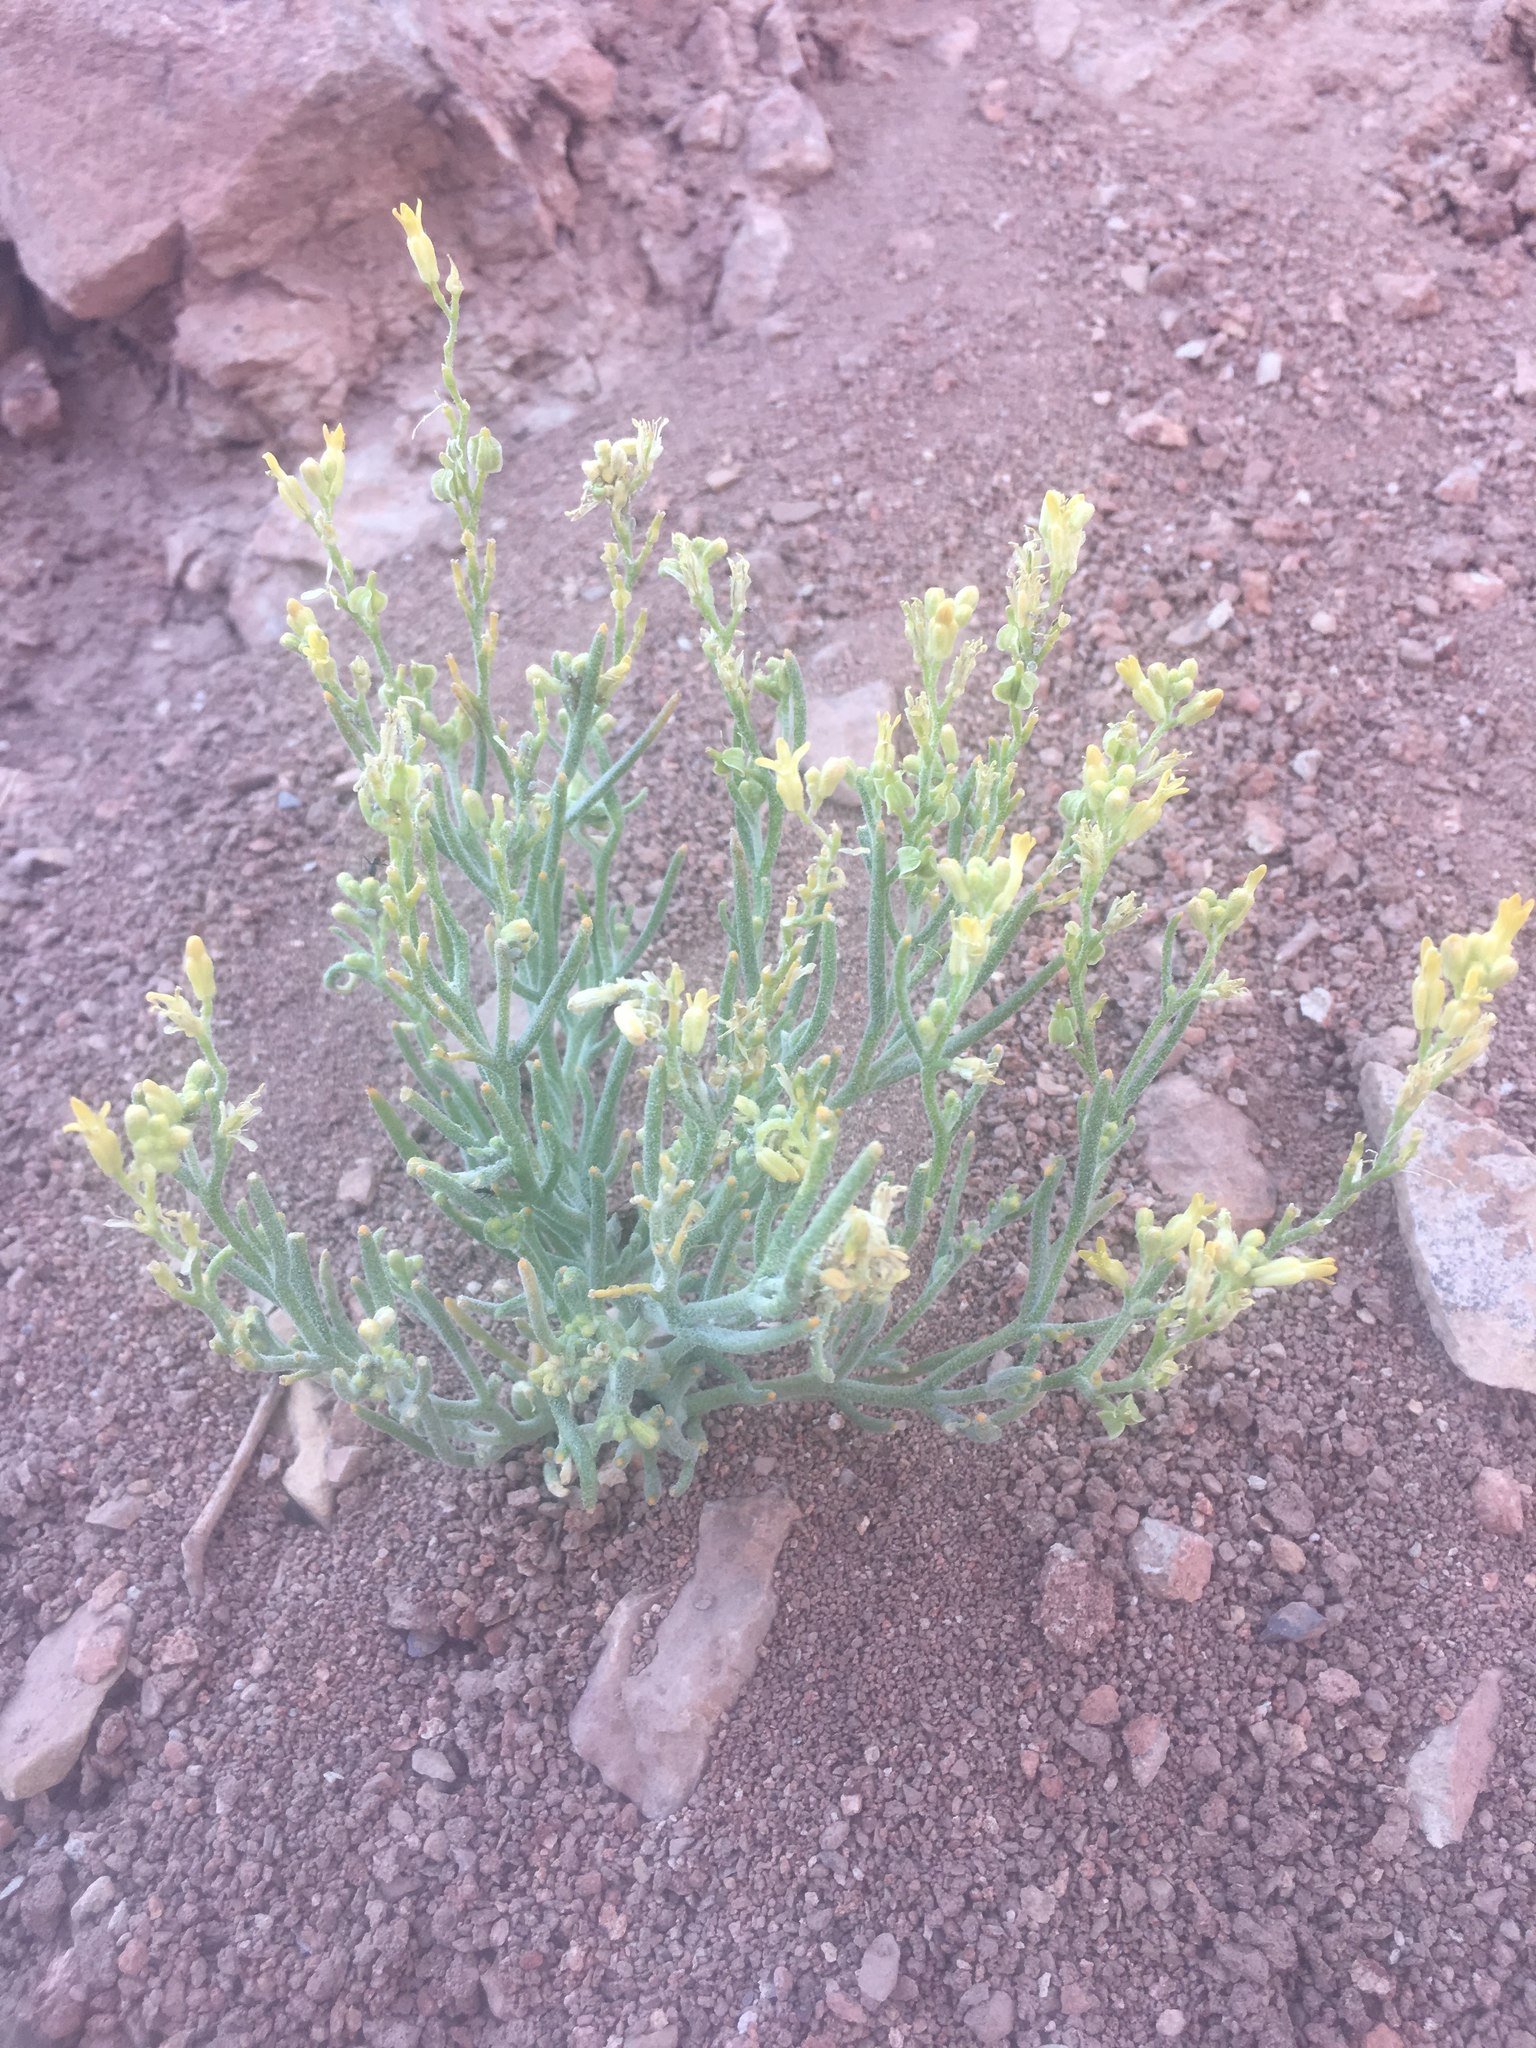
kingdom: Plantae
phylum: Tracheophyta
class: Magnoliopsida
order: Brassicales
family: Brassicaceae
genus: Menonvillea
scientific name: Menonvillea pinnatifida
